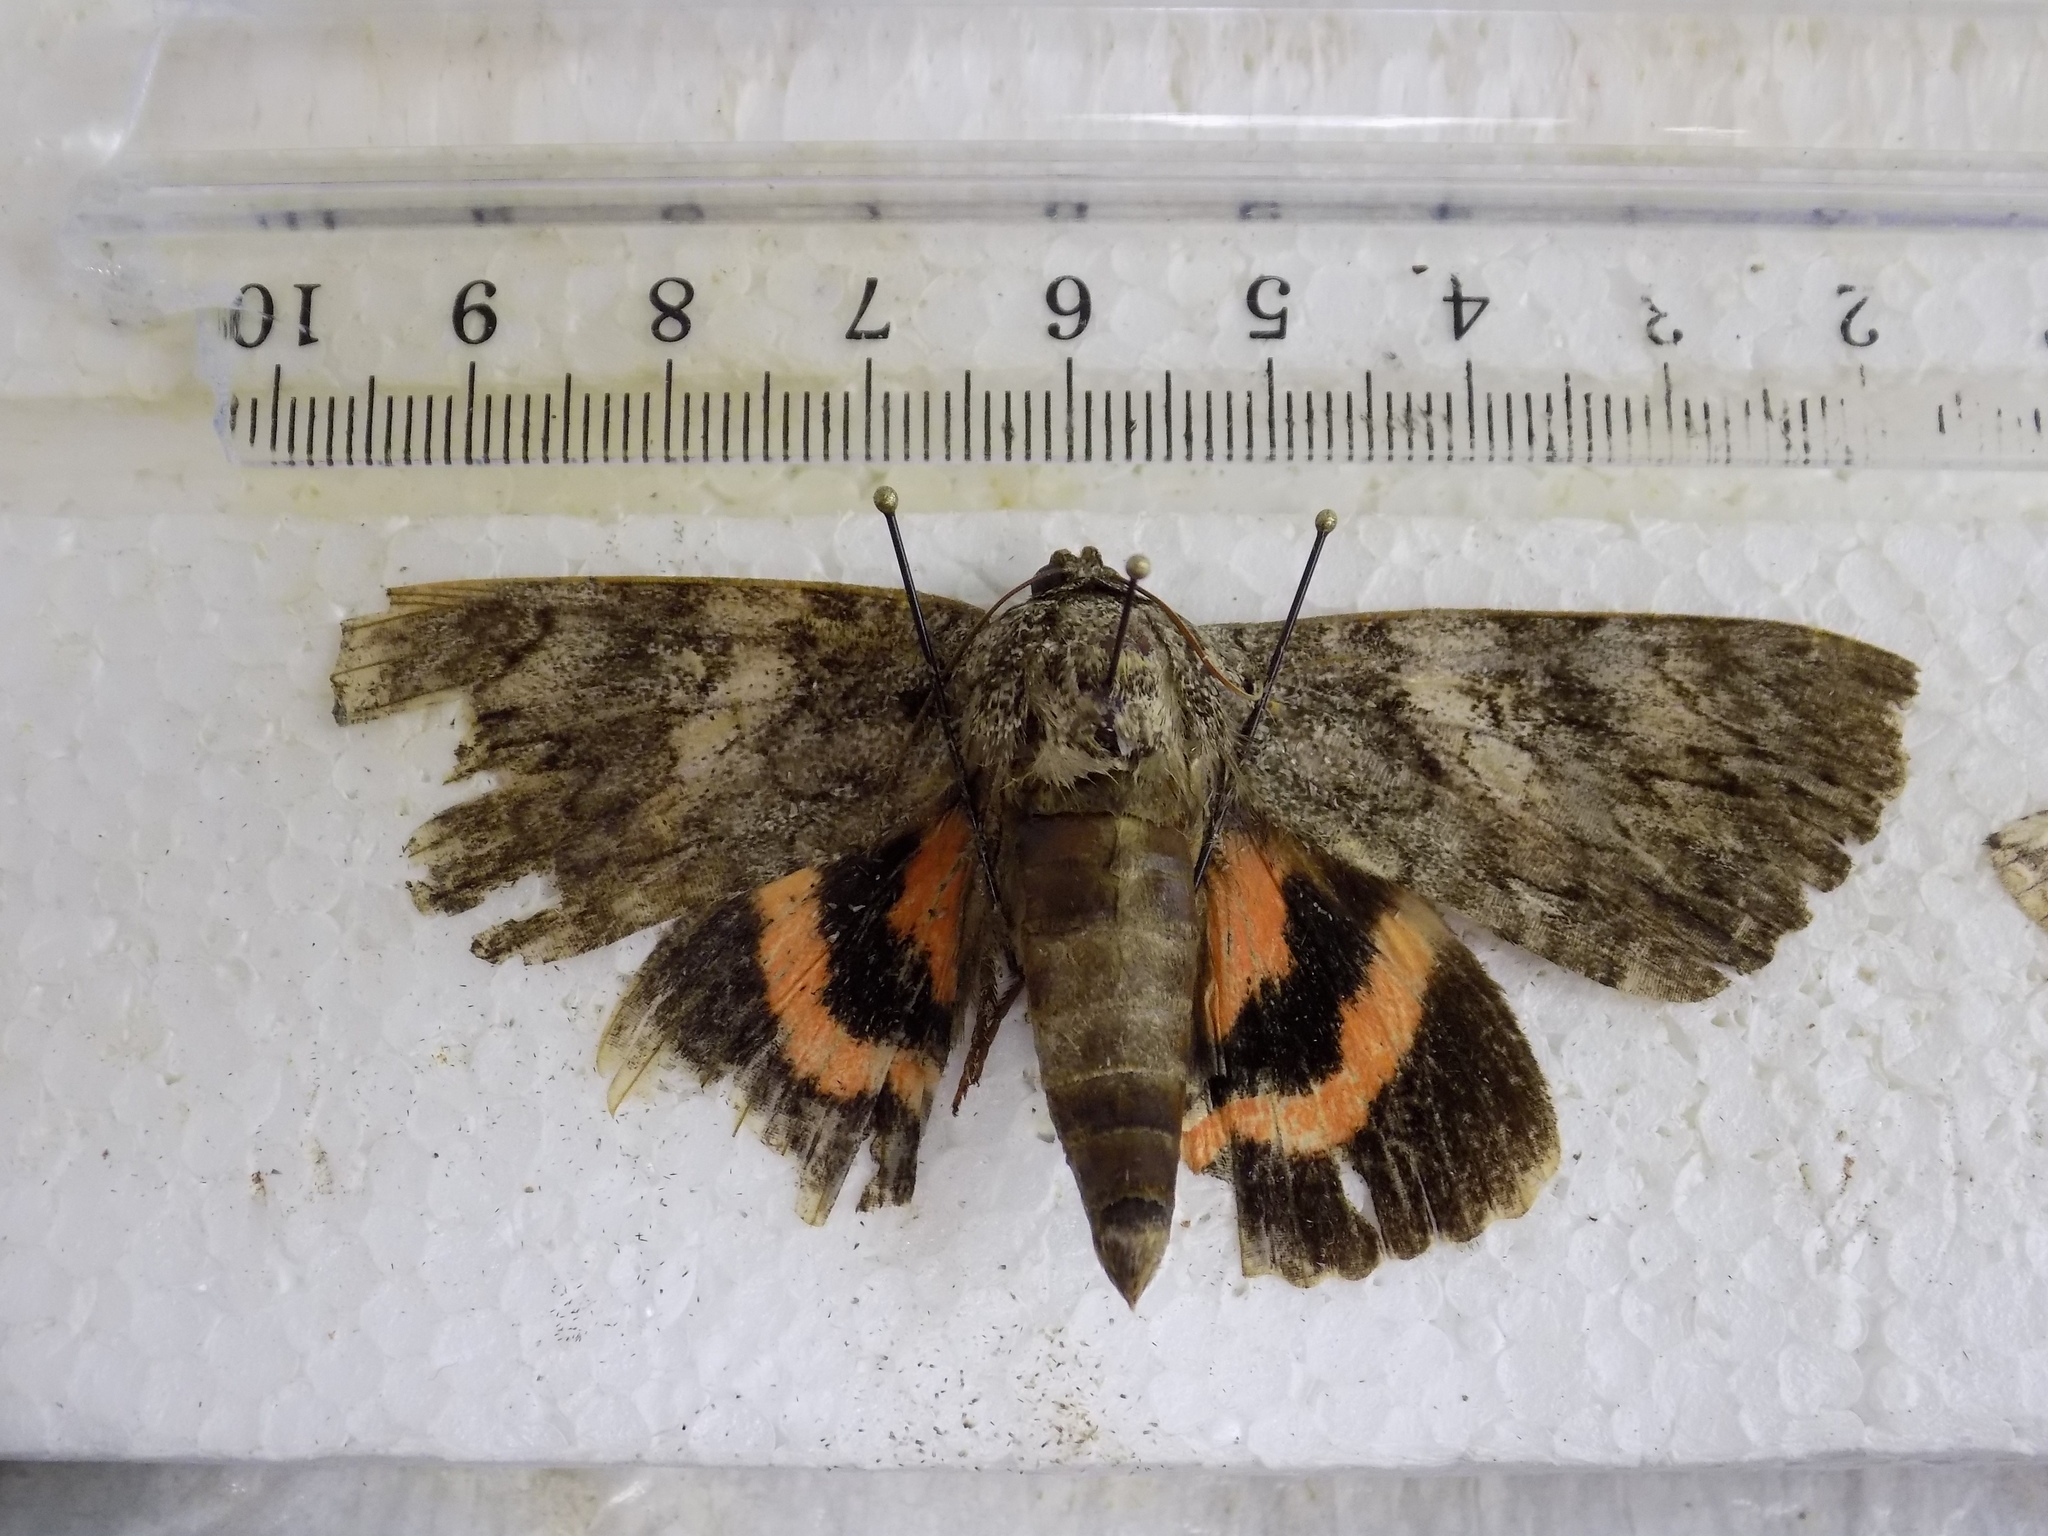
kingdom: Animalia
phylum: Arthropoda
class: Insecta
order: Lepidoptera
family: Erebidae
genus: Catocala
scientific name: Catocala ilia
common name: Ilia underwing
